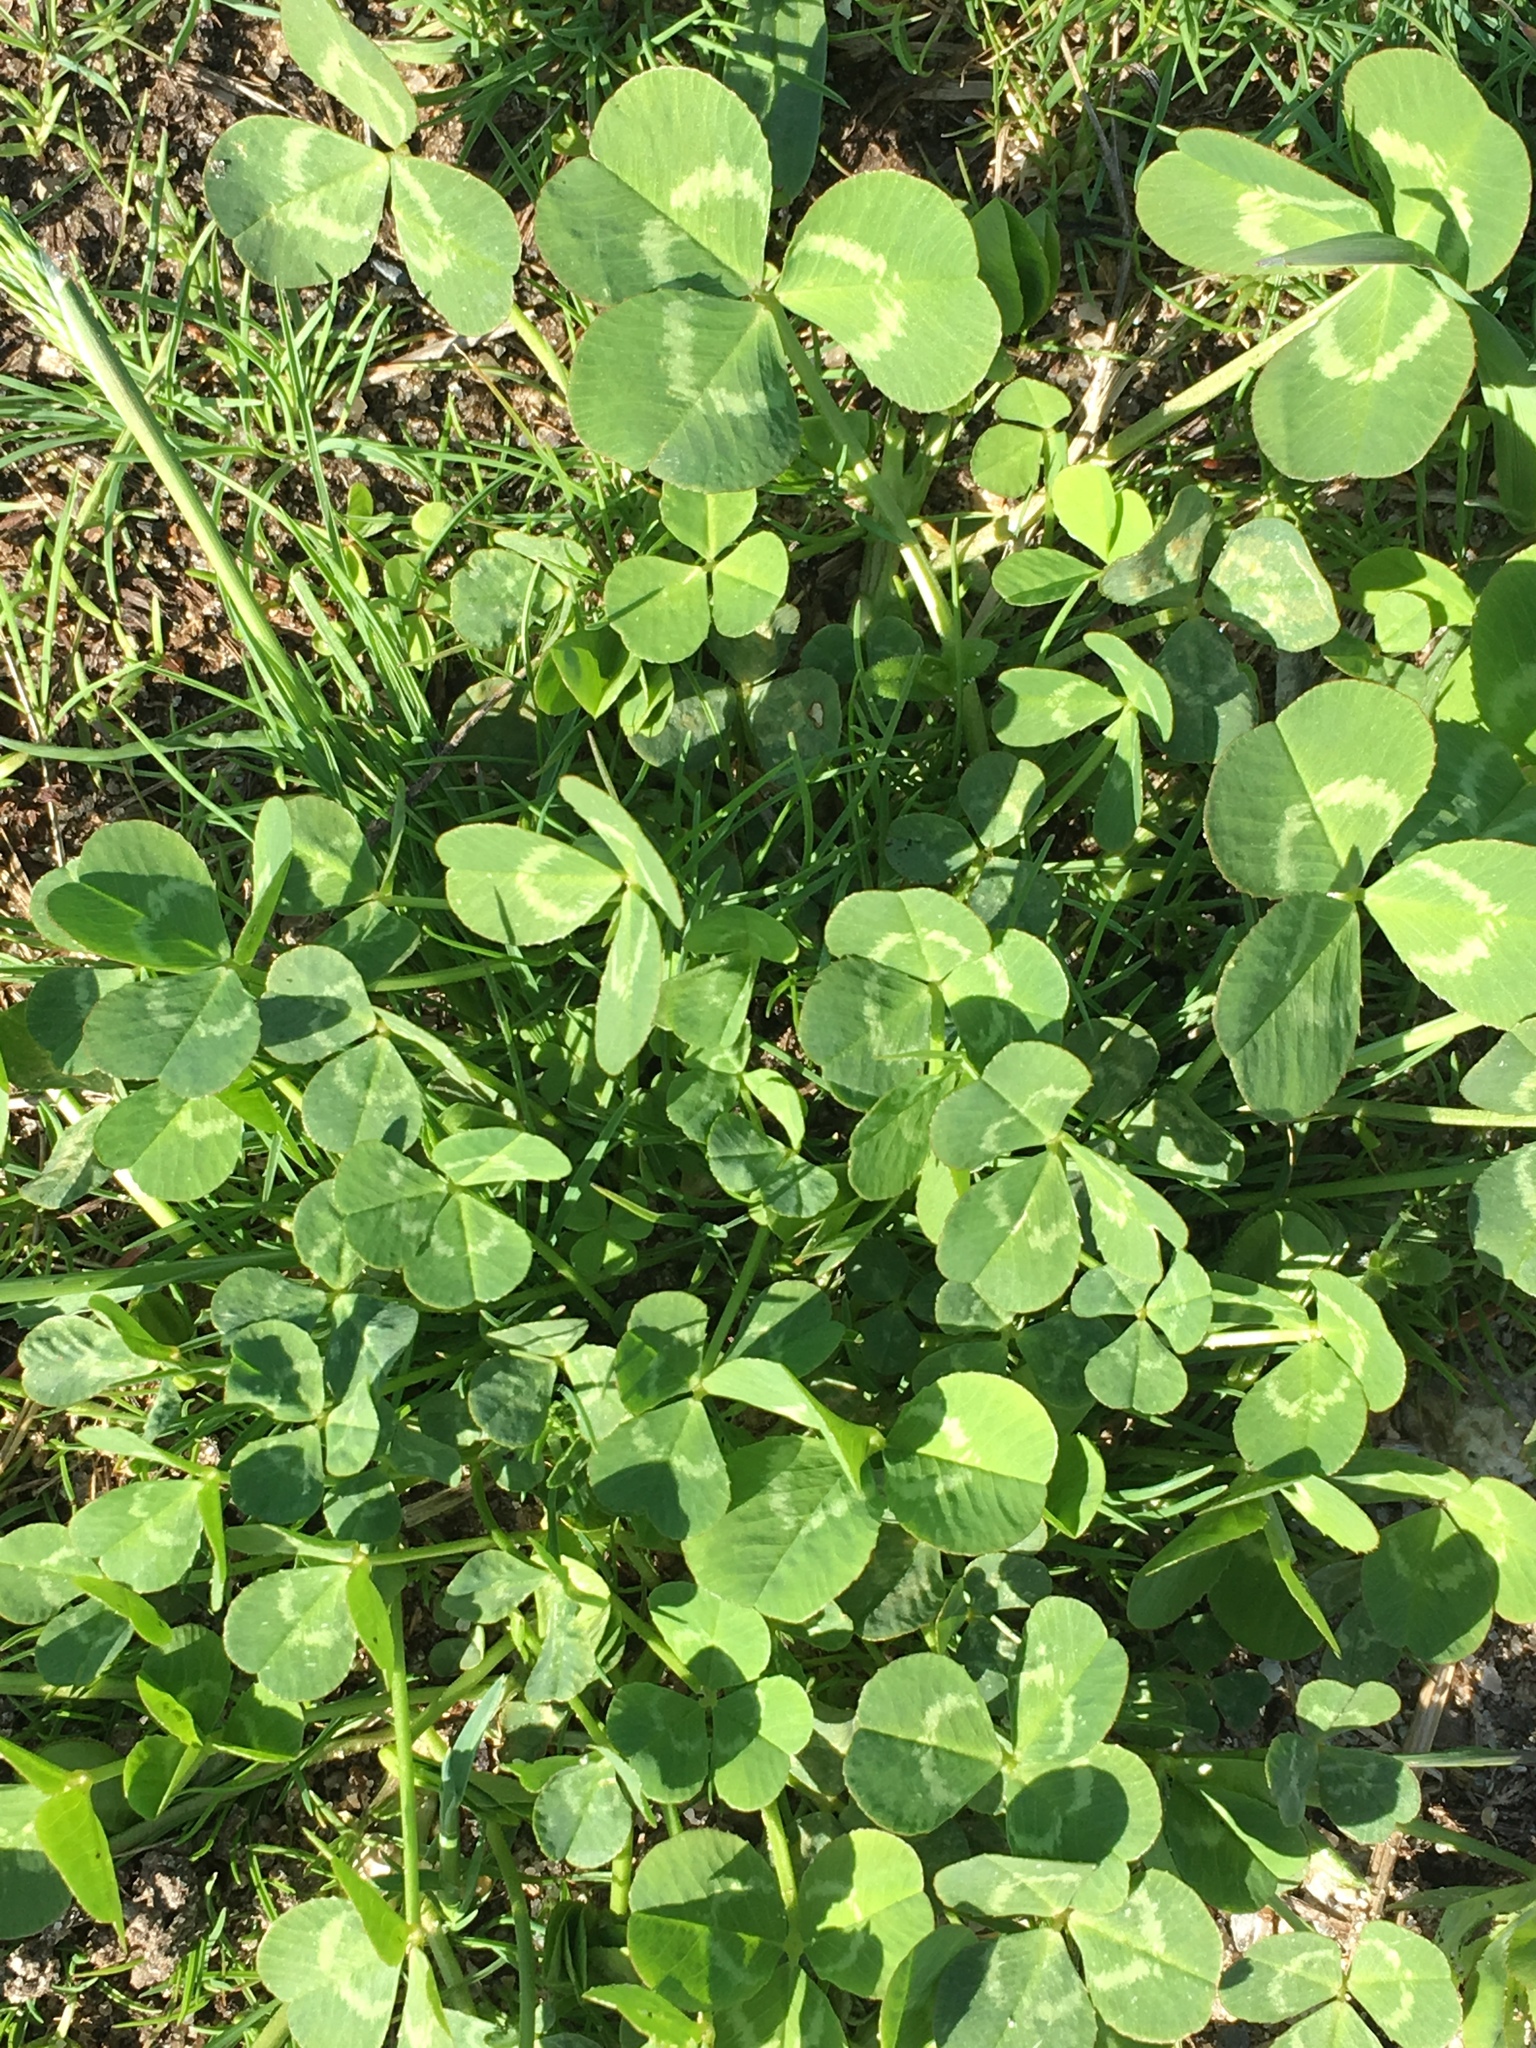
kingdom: Plantae
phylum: Tracheophyta
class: Magnoliopsida
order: Fabales
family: Fabaceae
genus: Trifolium
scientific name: Trifolium repens
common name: White clover
